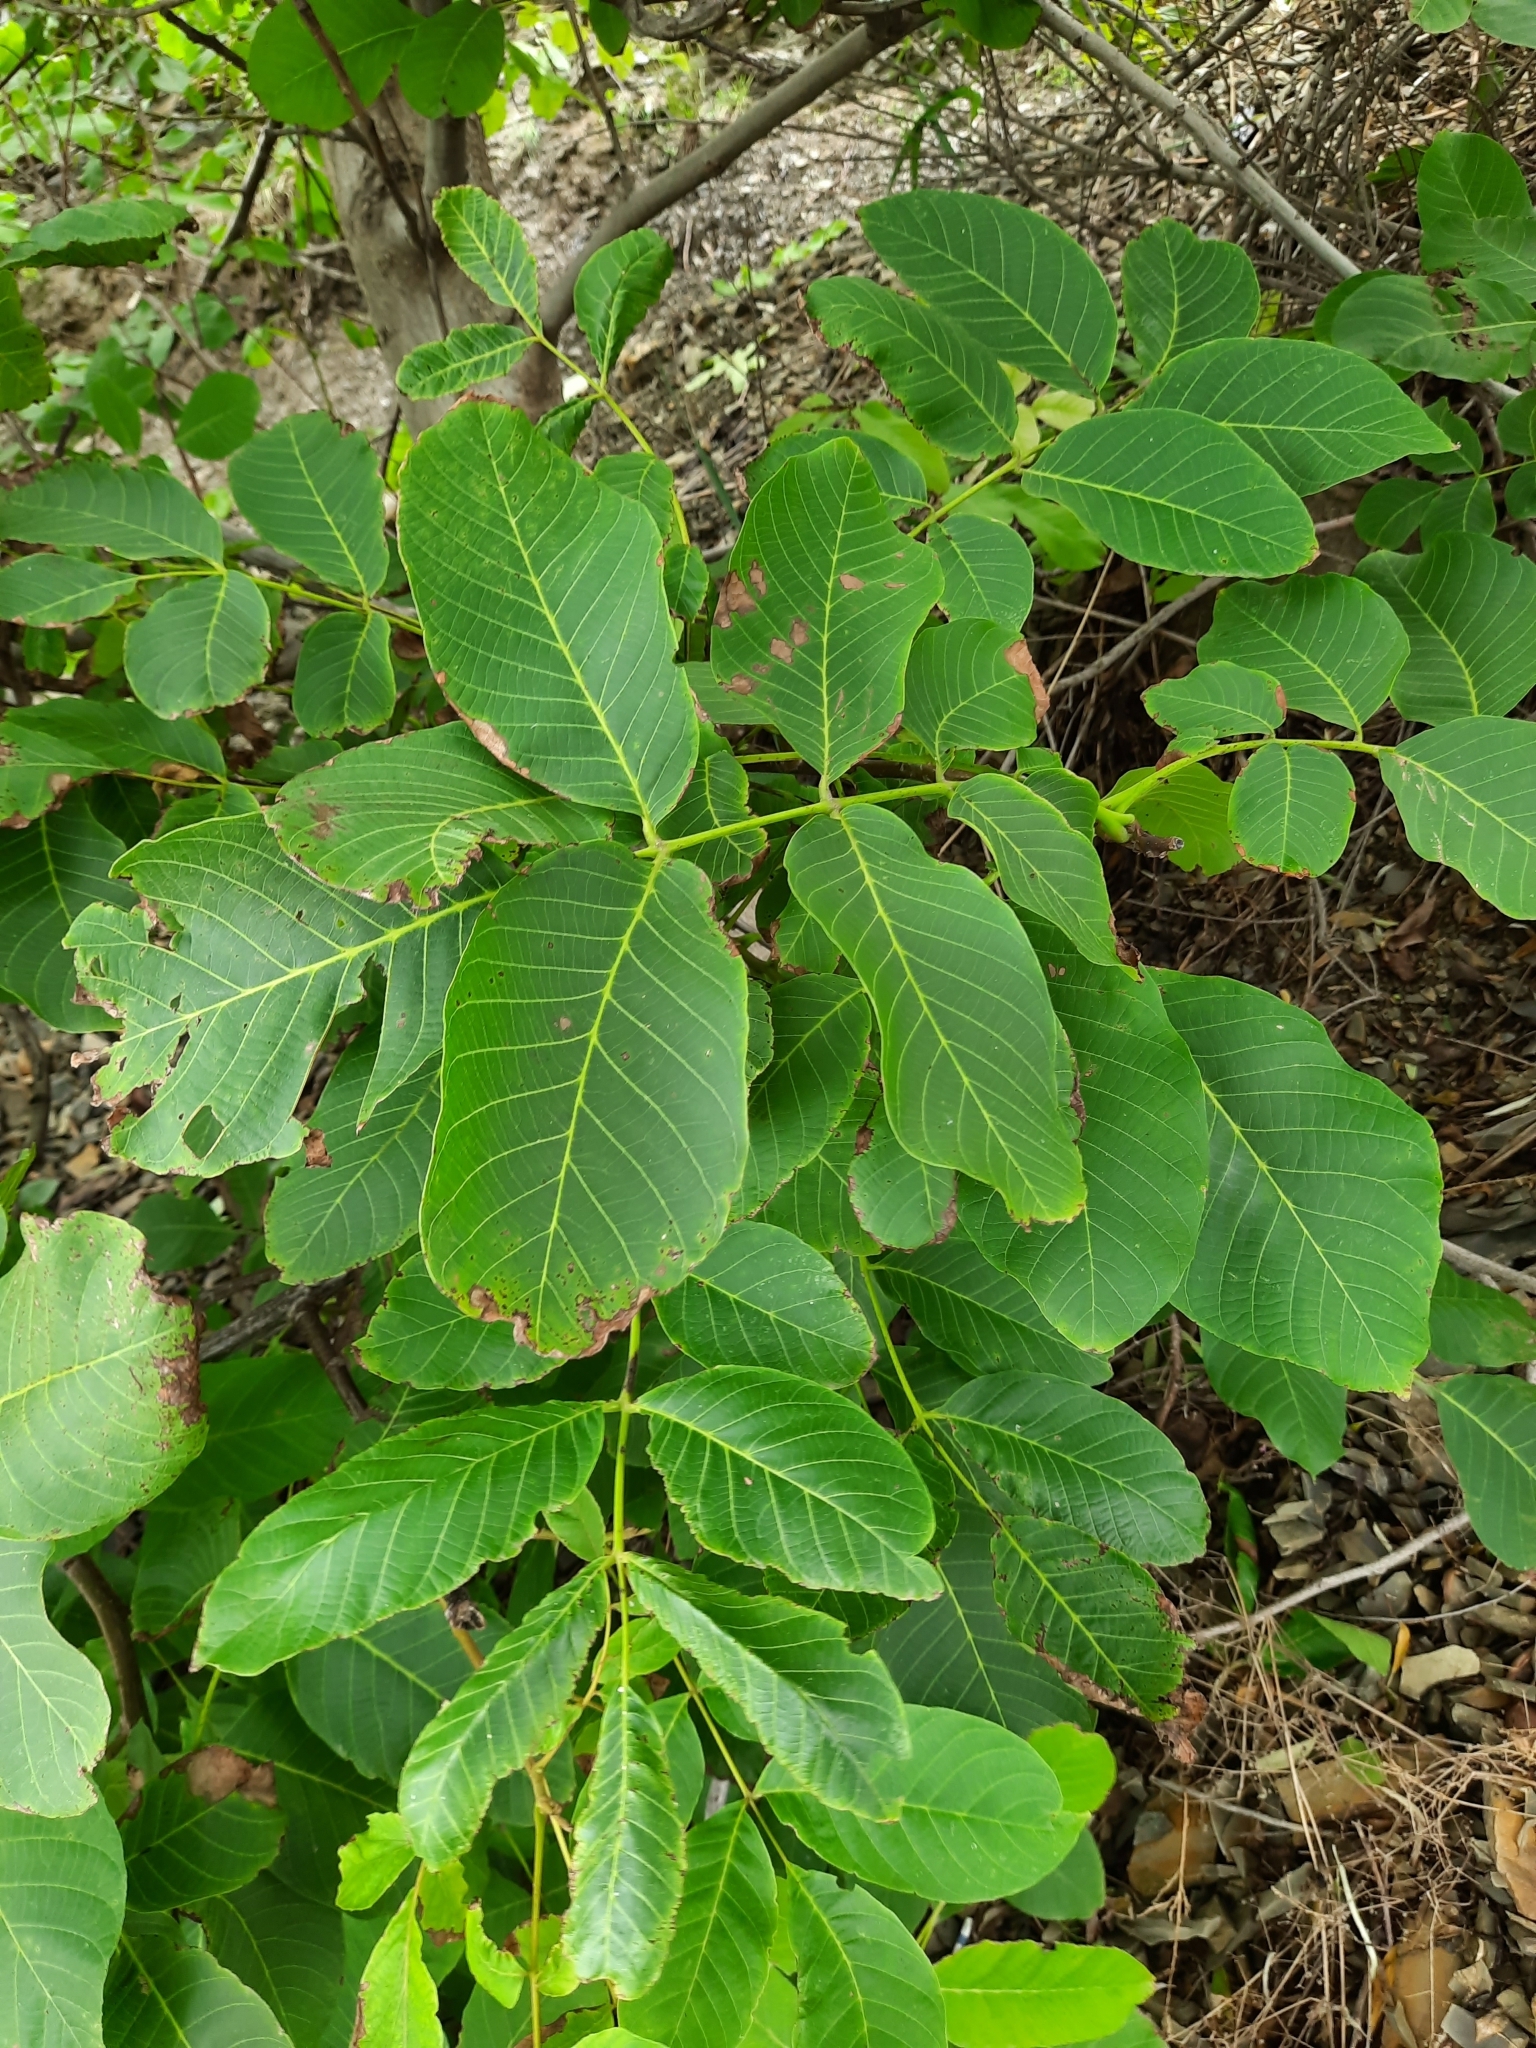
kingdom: Plantae
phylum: Tracheophyta
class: Magnoliopsida
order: Fagales
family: Juglandaceae
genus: Juglans
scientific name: Juglans regia
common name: Walnut
